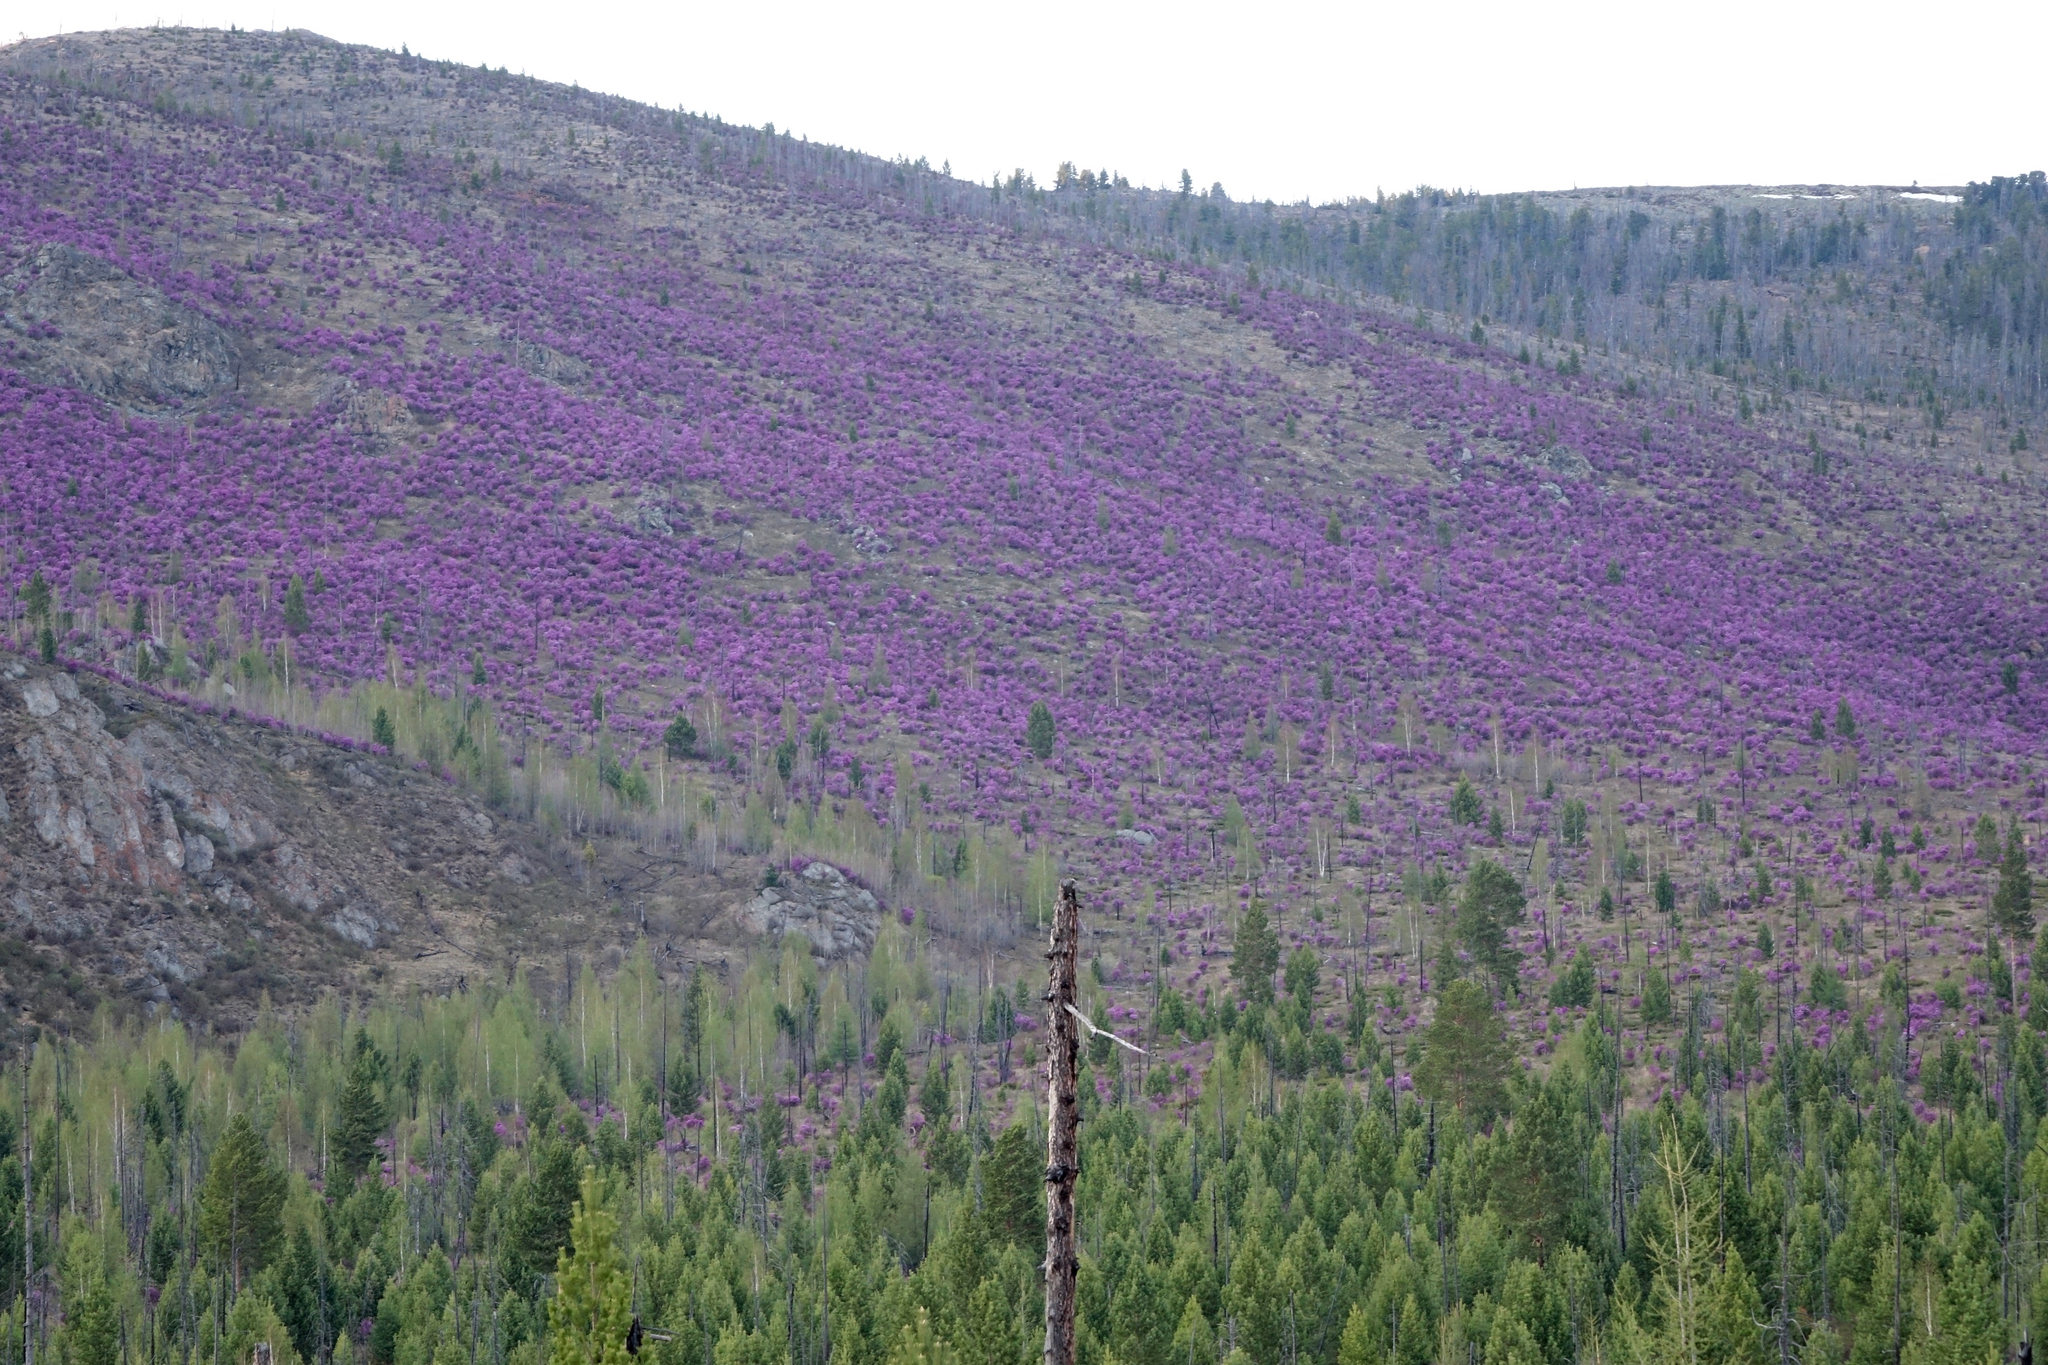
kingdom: Plantae
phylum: Tracheophyta
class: Magnoliopsida
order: Ericales
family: Ericaceae
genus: Rhododendron
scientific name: Rhododendron dauricum
